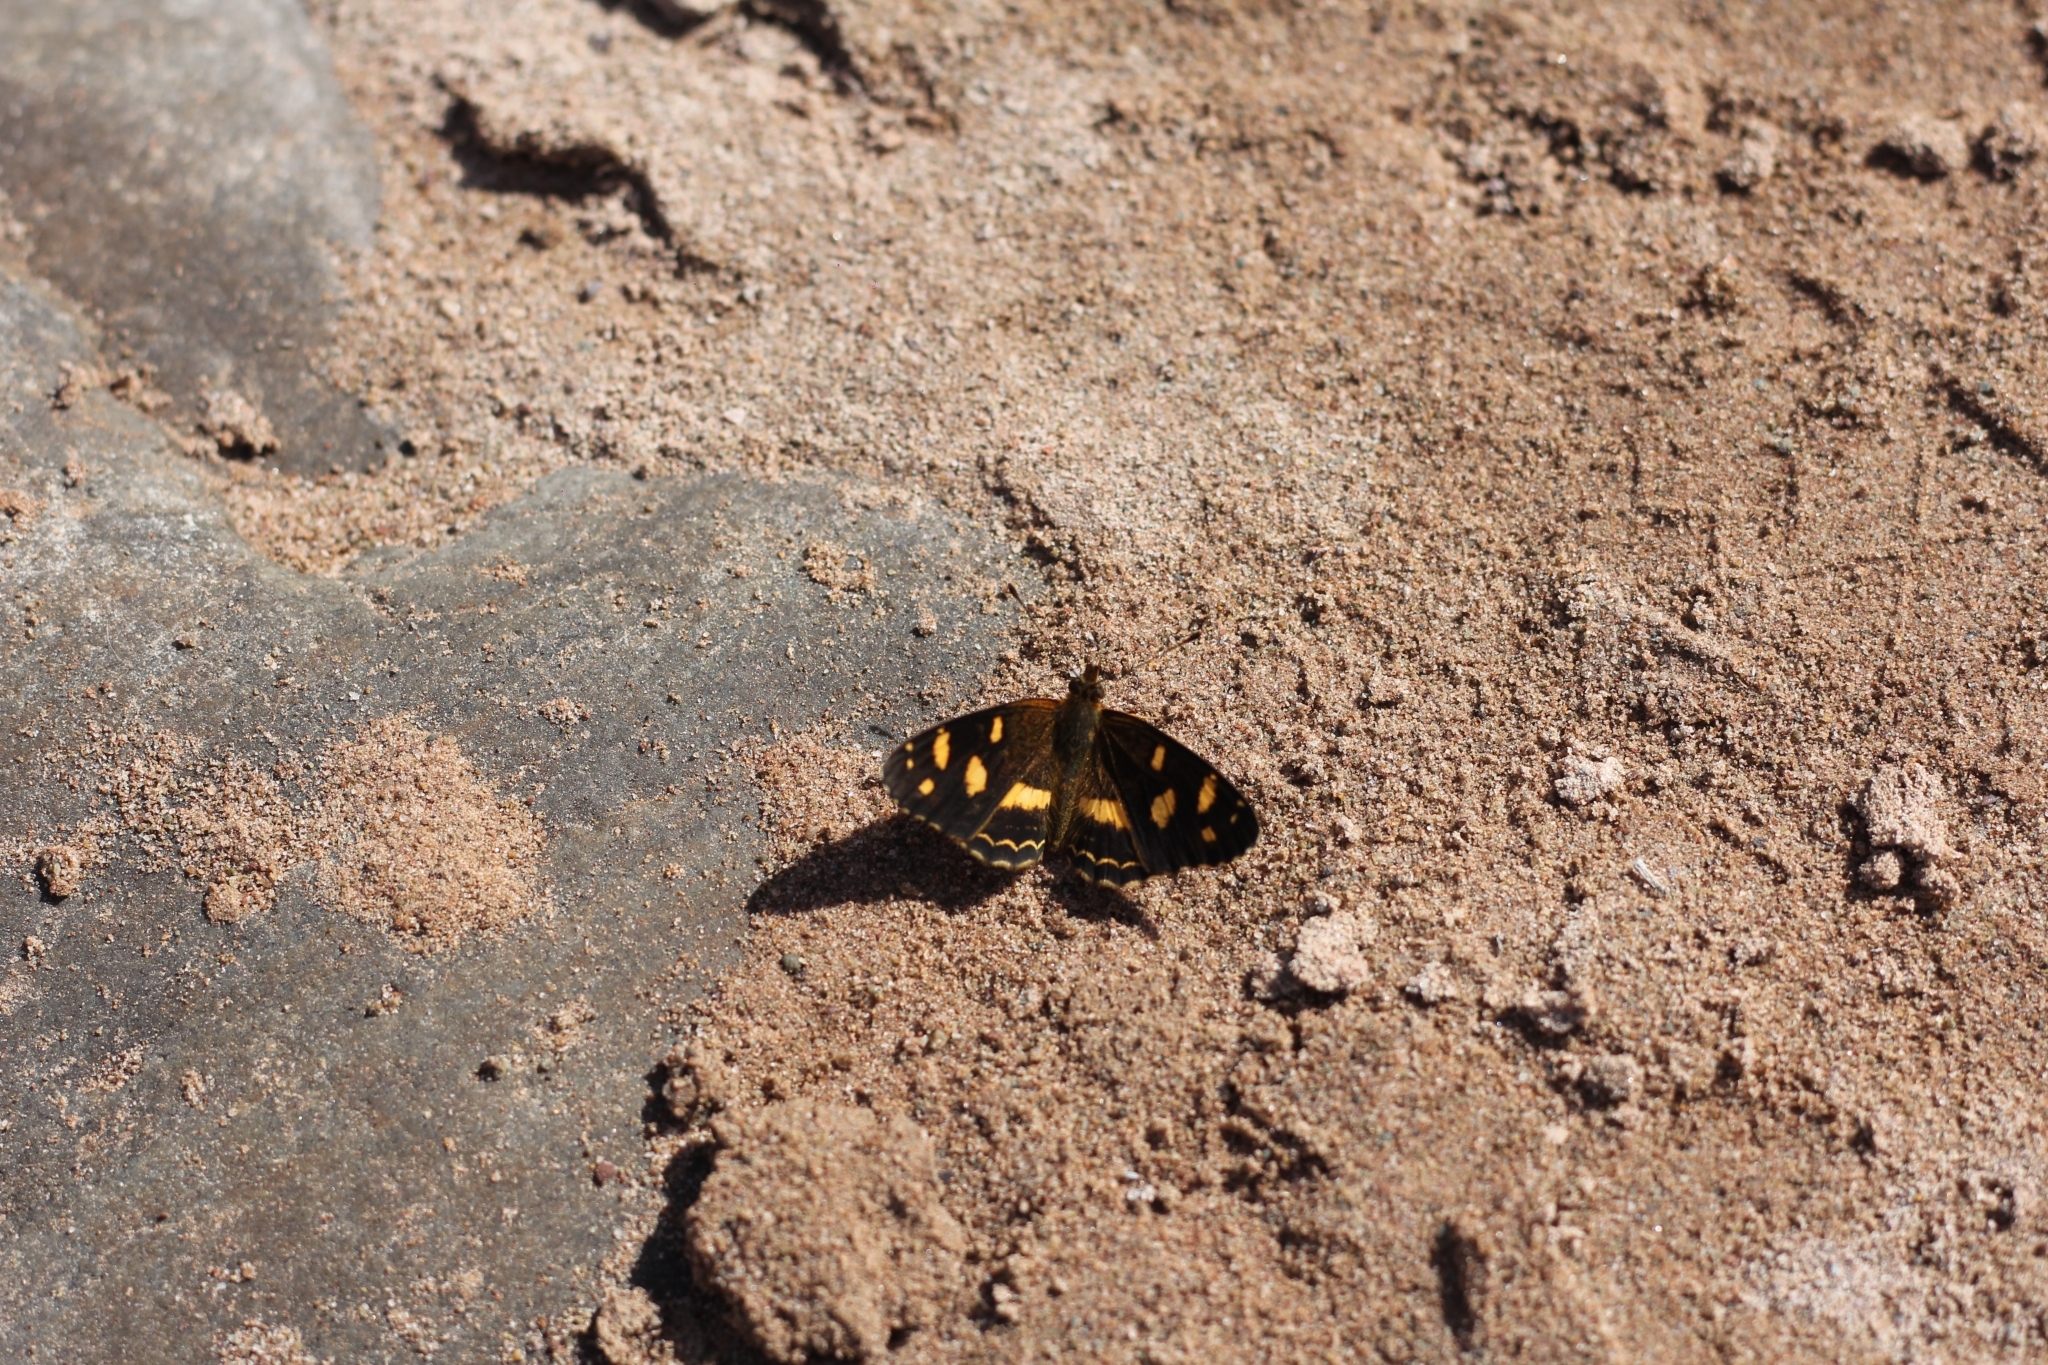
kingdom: Animalia
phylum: Arthropoda
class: Insecta
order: Lepidoptera
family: Nymphalidae
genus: Telenassa
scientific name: Telenassa berenice
